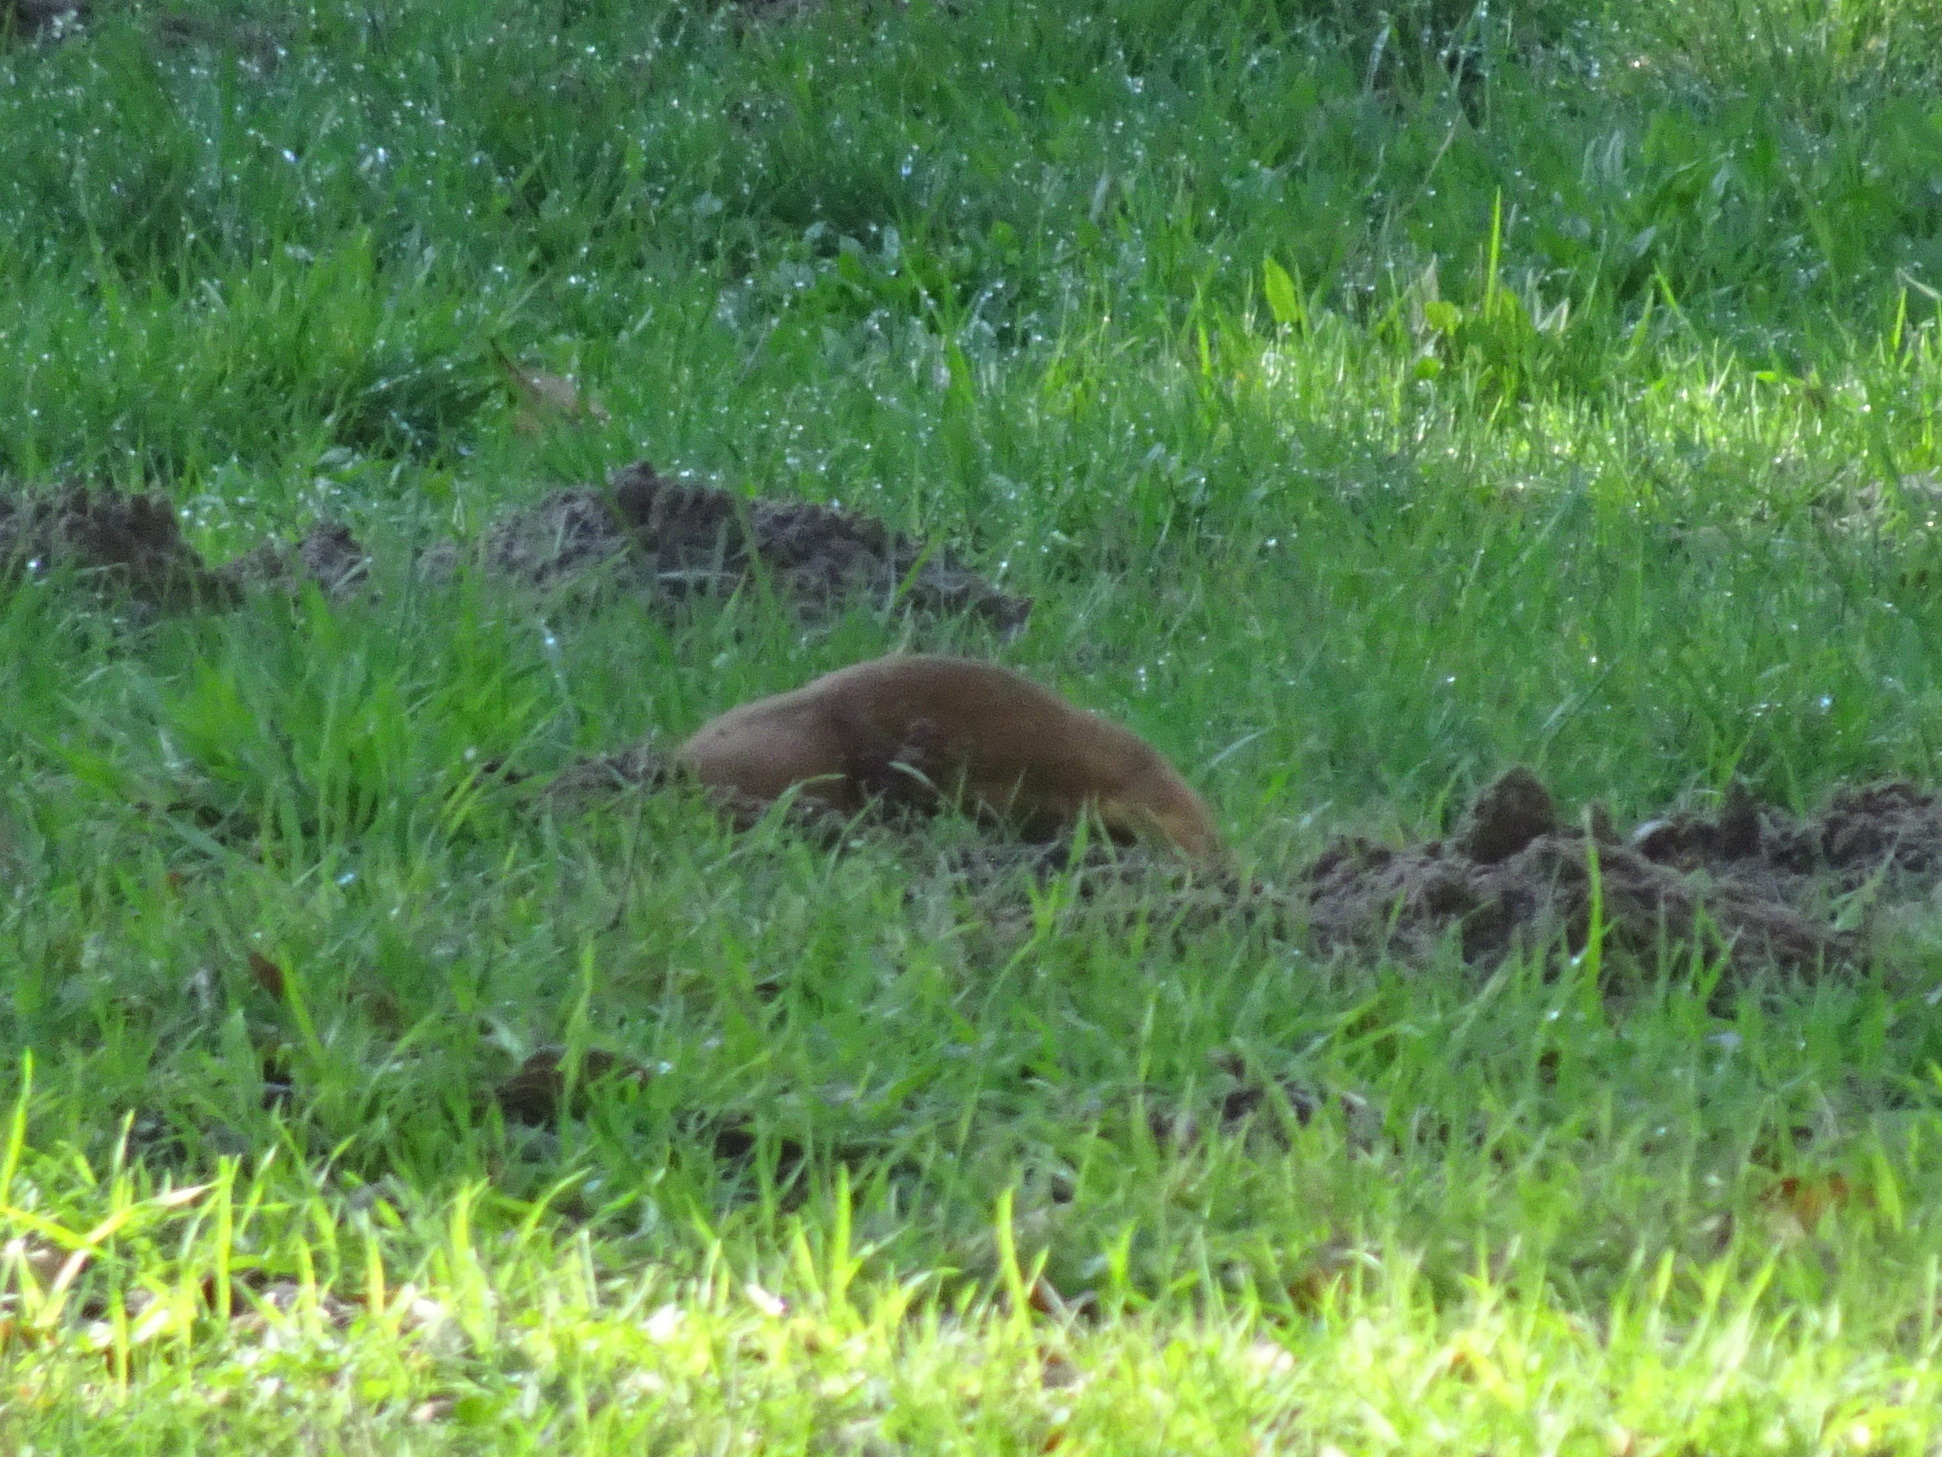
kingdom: Animalia
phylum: Chordata
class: Mammalia
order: Carnivora
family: Mustelidae
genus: Mustela
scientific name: Mustela
